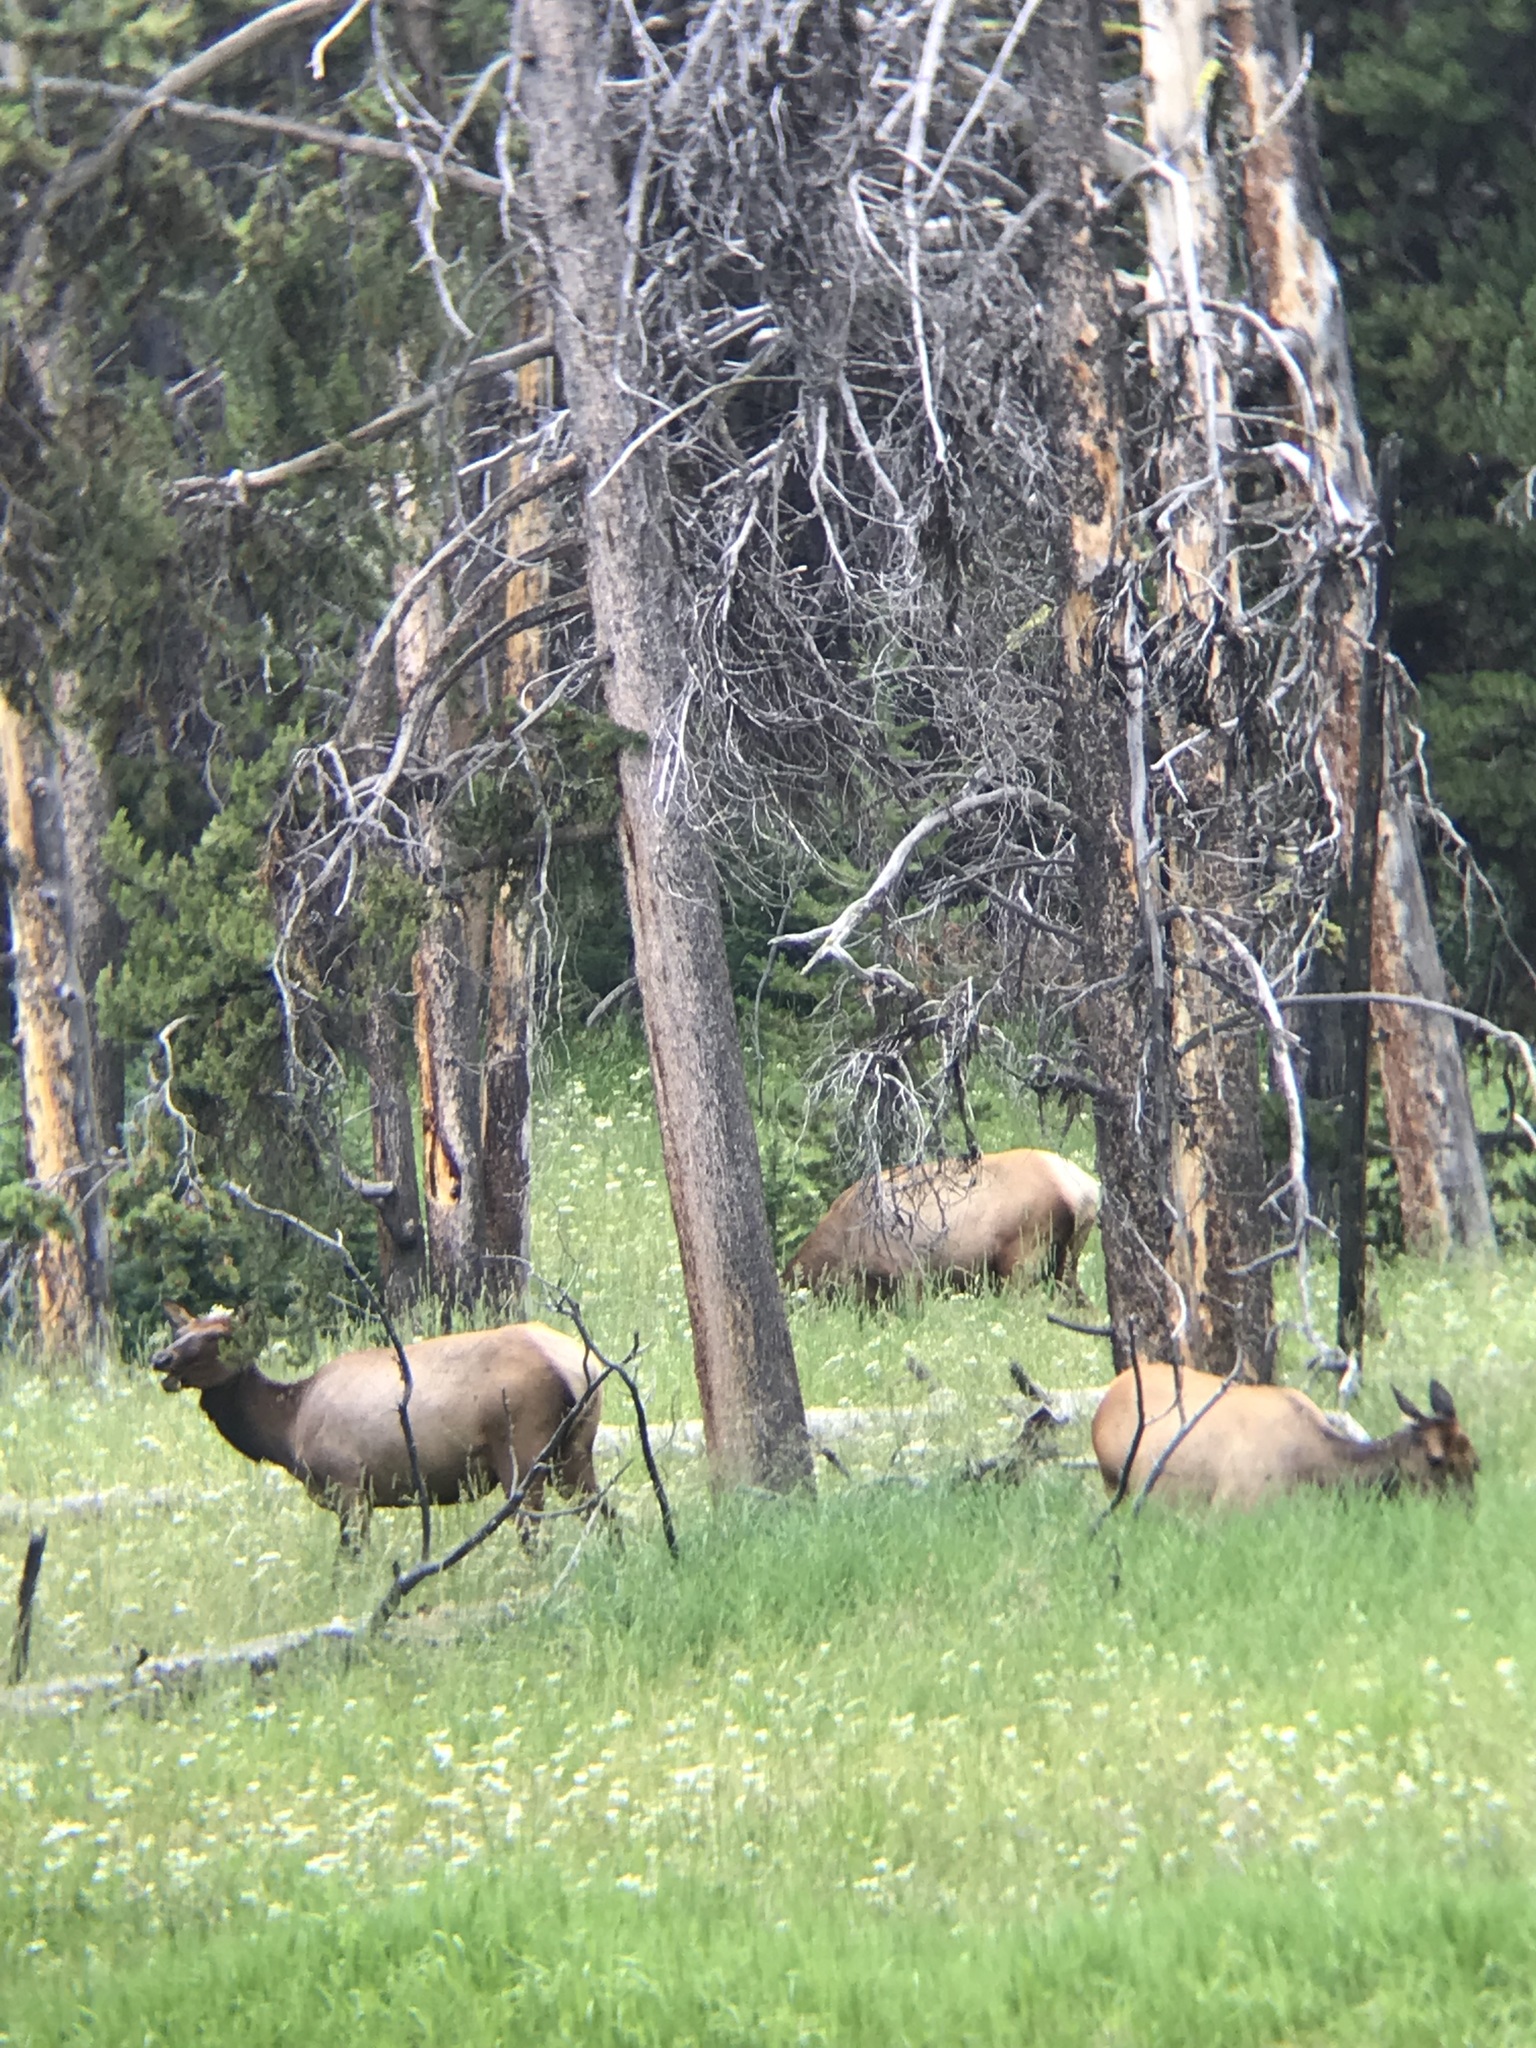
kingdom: Animalia
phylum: Chordata
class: Mammalia
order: Artiodactyla
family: Cervidae
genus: Cervus
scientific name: Cervus elaphus
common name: Red deer
